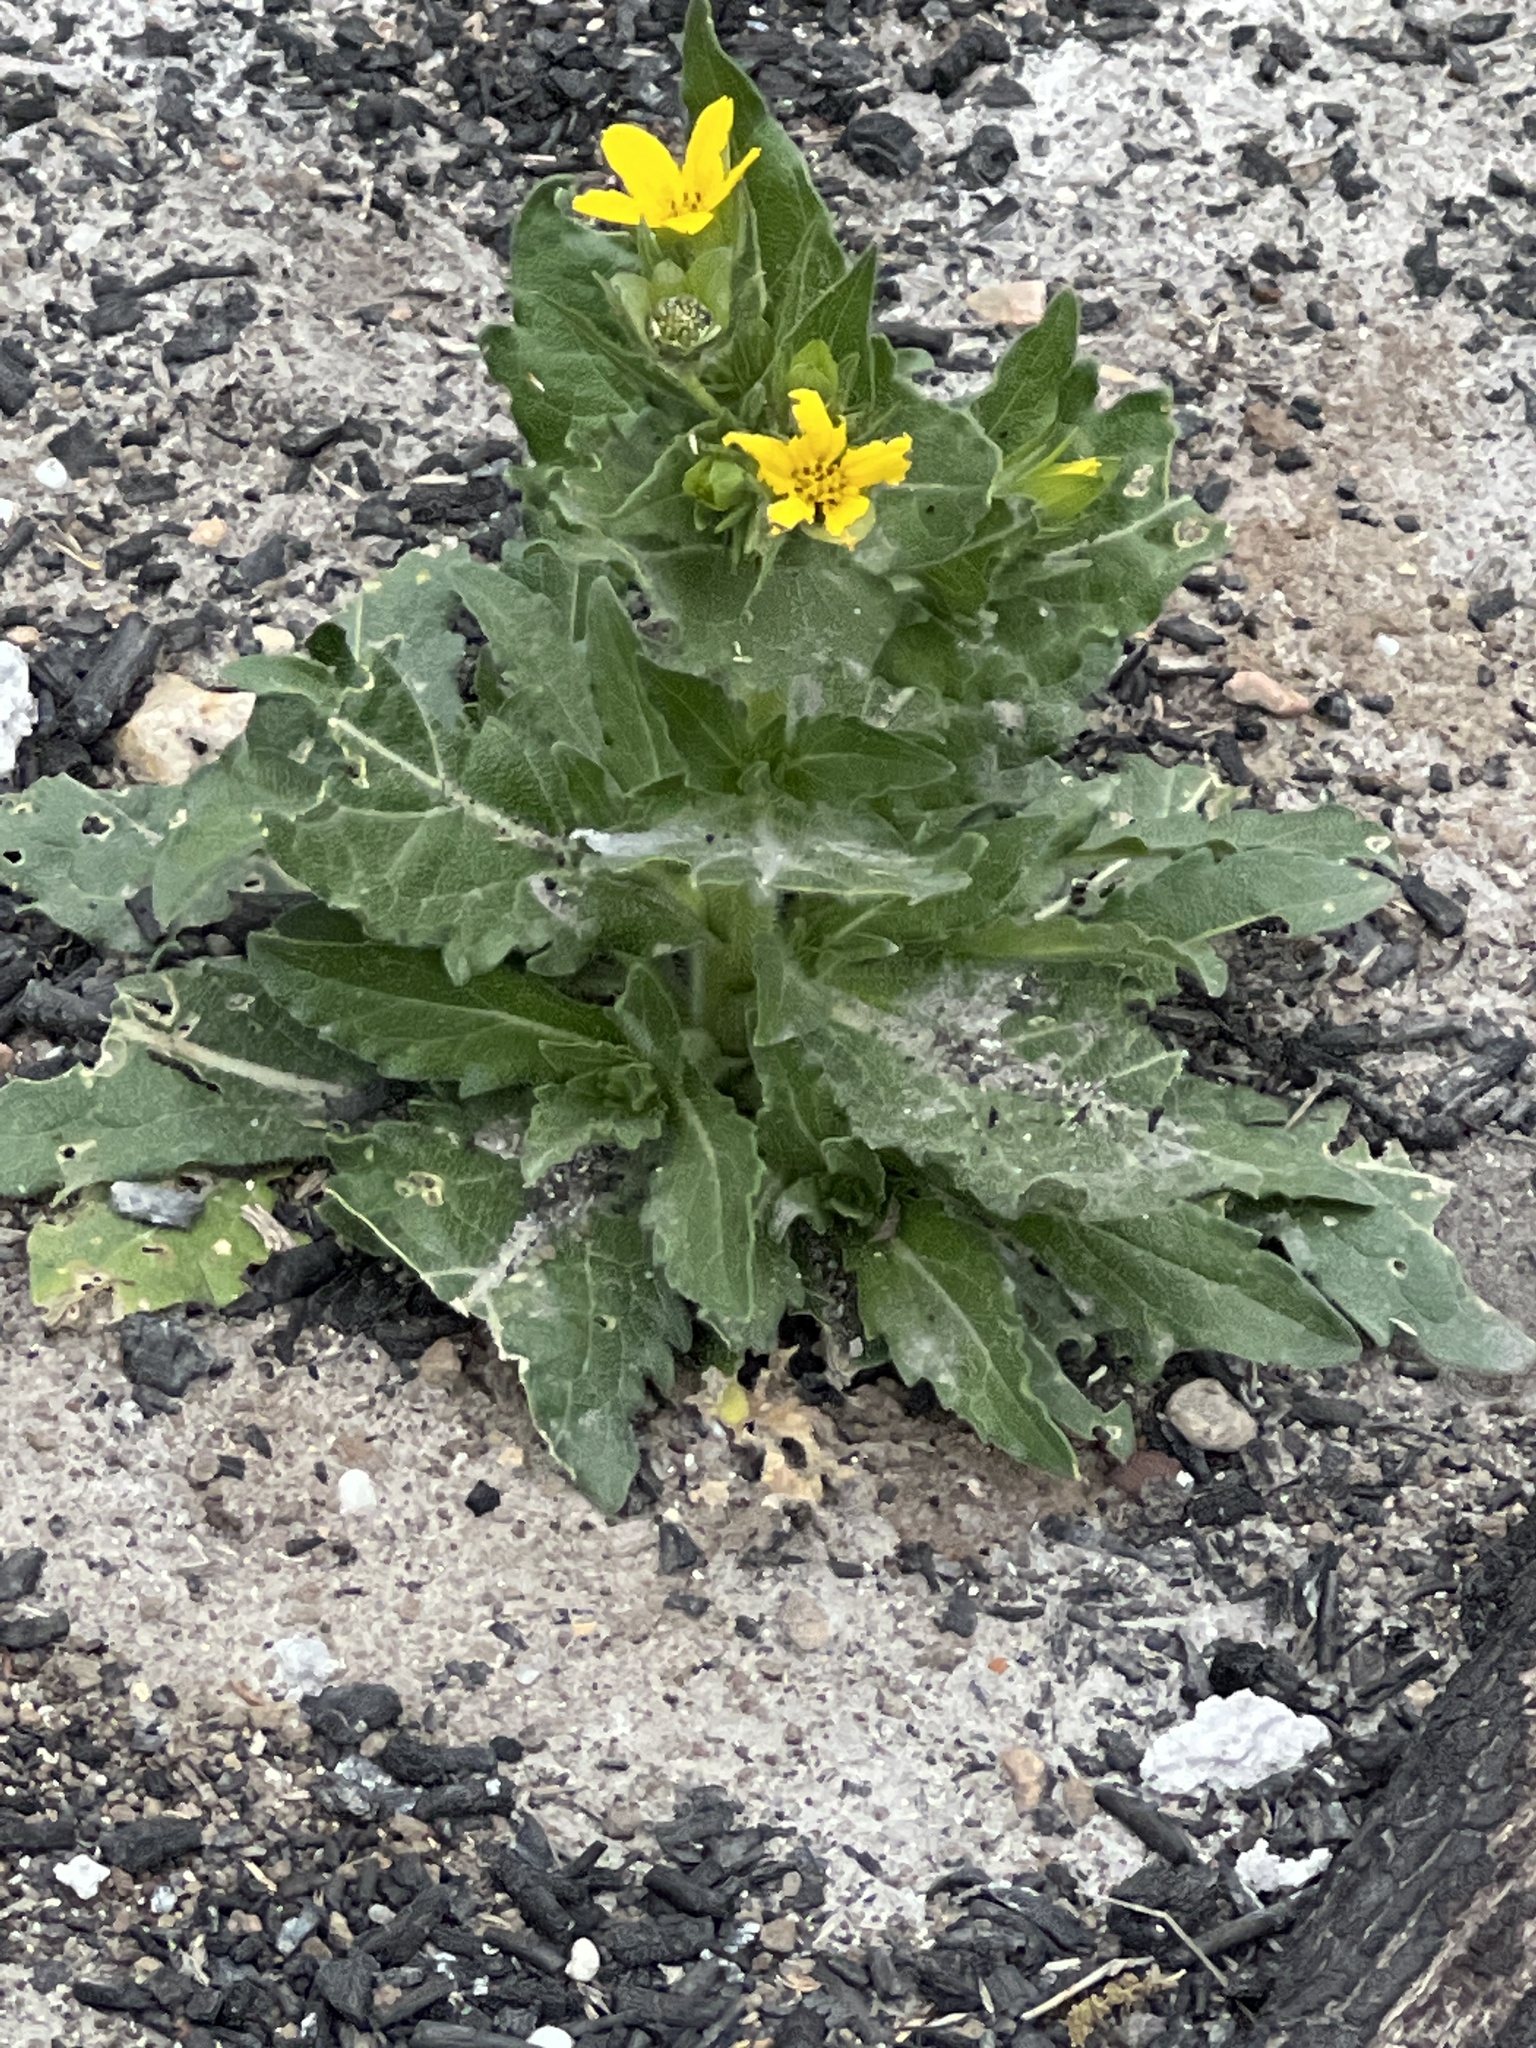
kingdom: Plantae
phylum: Tracheophyta
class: Magnoliopsida
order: Asterales
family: Asteraceae
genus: Lindheimera
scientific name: Lindheimera texana
